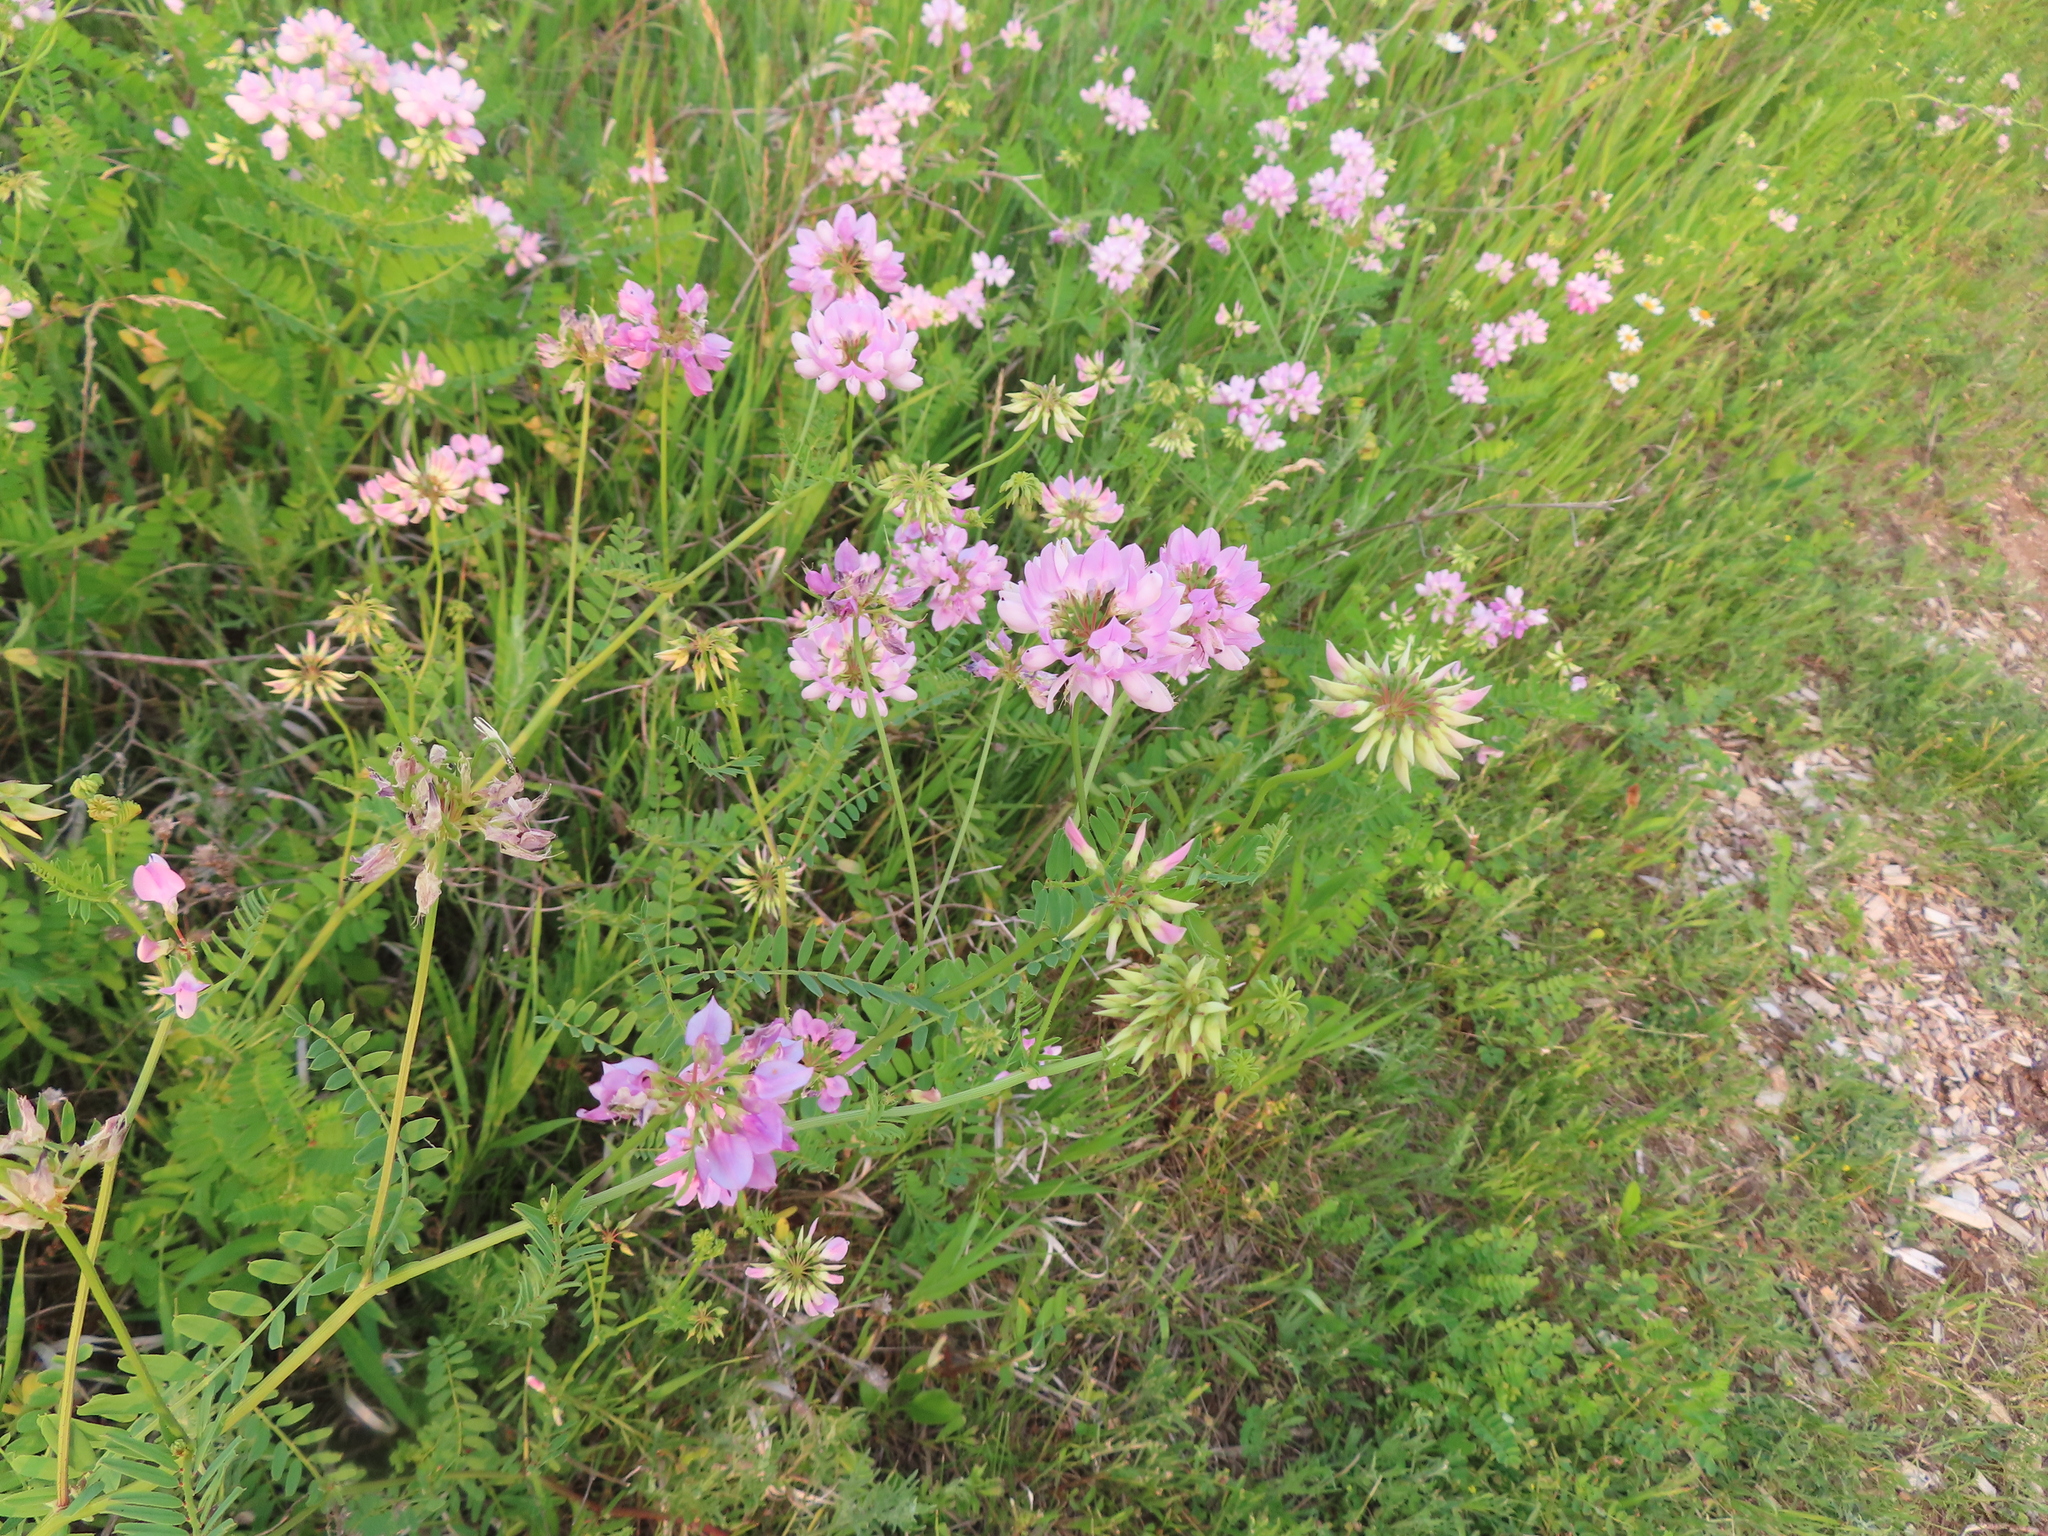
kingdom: Plantae
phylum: Tracheophyta
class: Magnoliopsida
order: Fabales
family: Fabaceae
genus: Coronilla
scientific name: Coronilla varia
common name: Crownvetch
